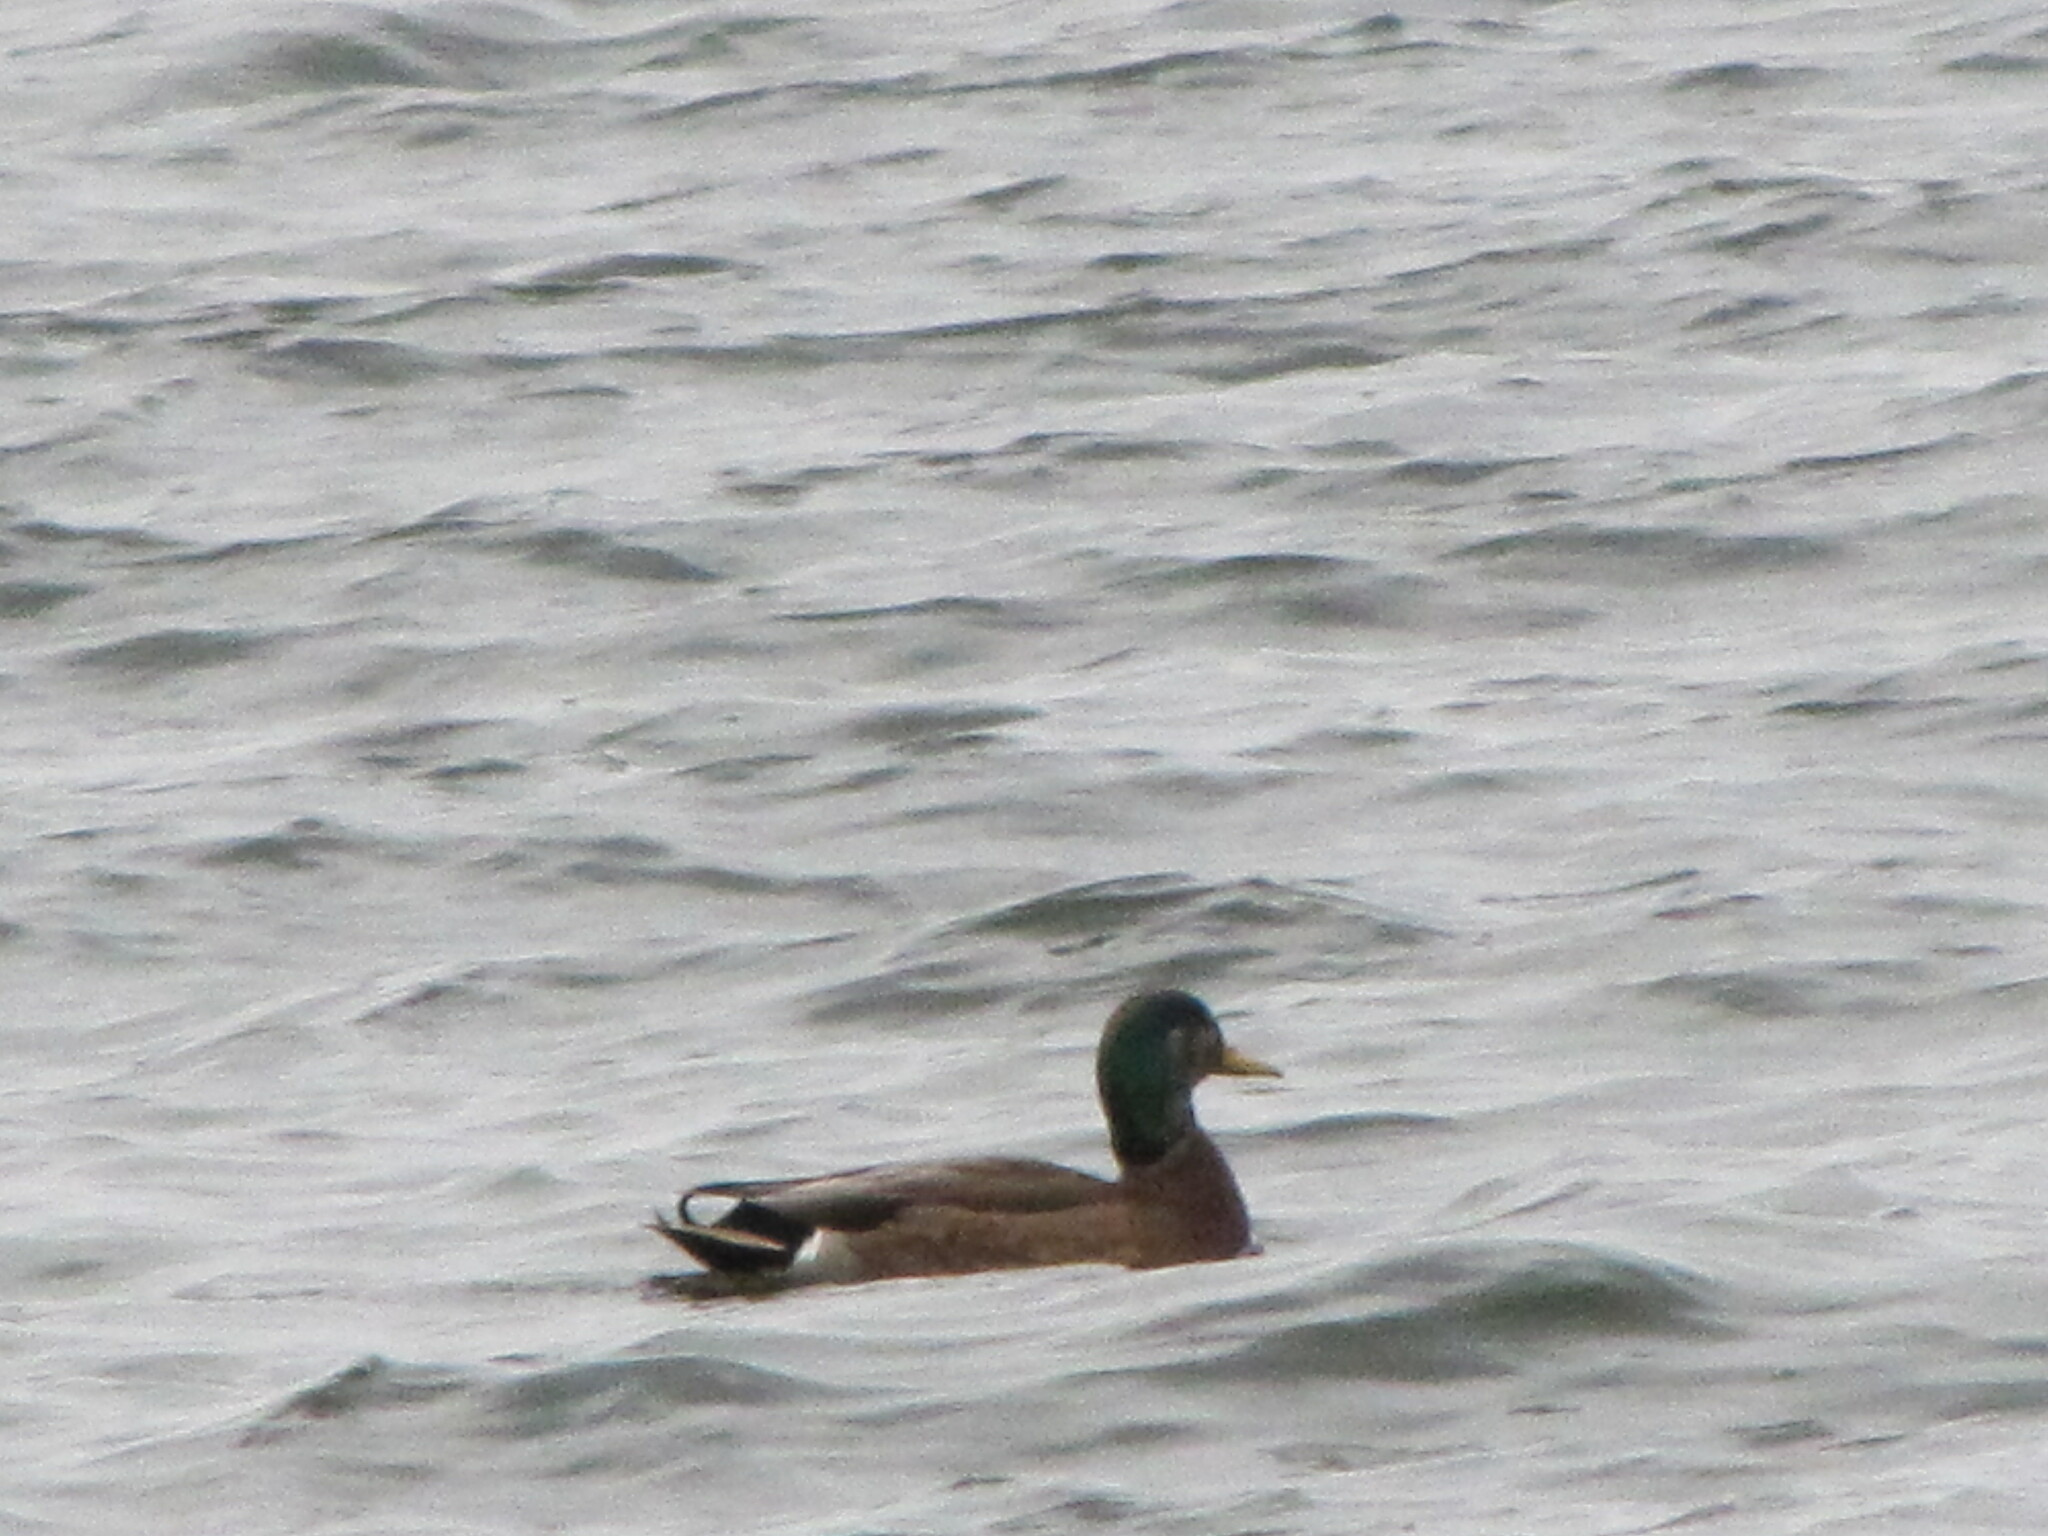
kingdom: Animalia
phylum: Chordata
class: Aves
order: Anseriformes
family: Anatidae
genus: Anas
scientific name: Anas
